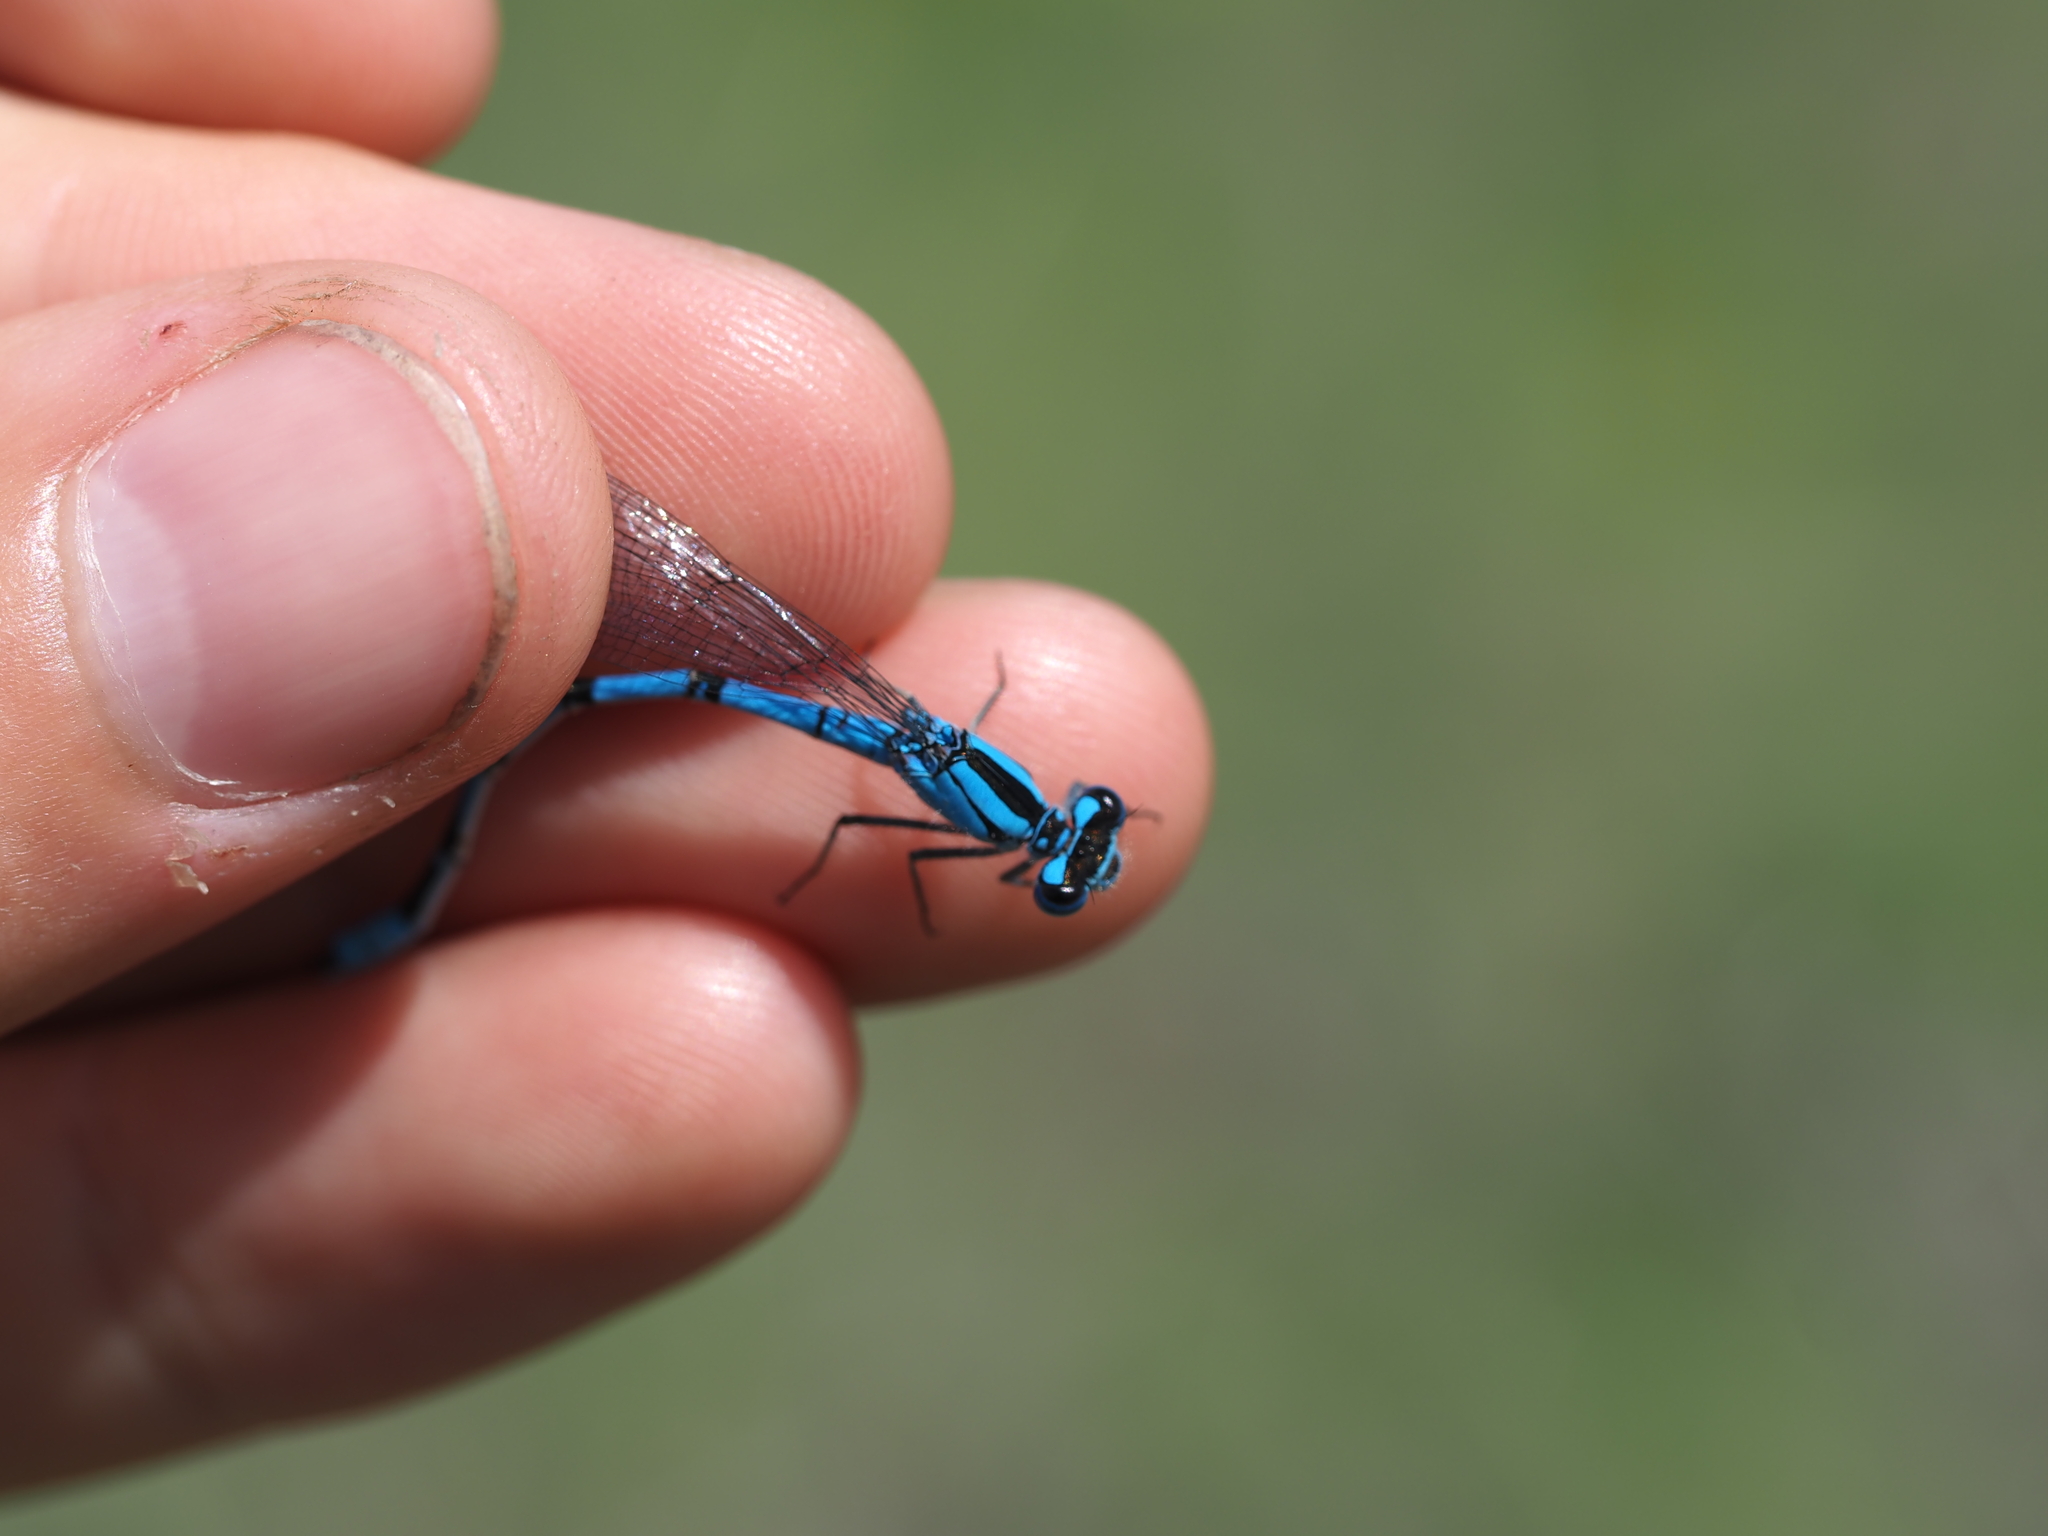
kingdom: Animalia
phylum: Arthropoda
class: Insecta
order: Odonata
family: Coenagrionidae
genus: Enallagma
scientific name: Enallagma annexum
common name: Northern bluet
